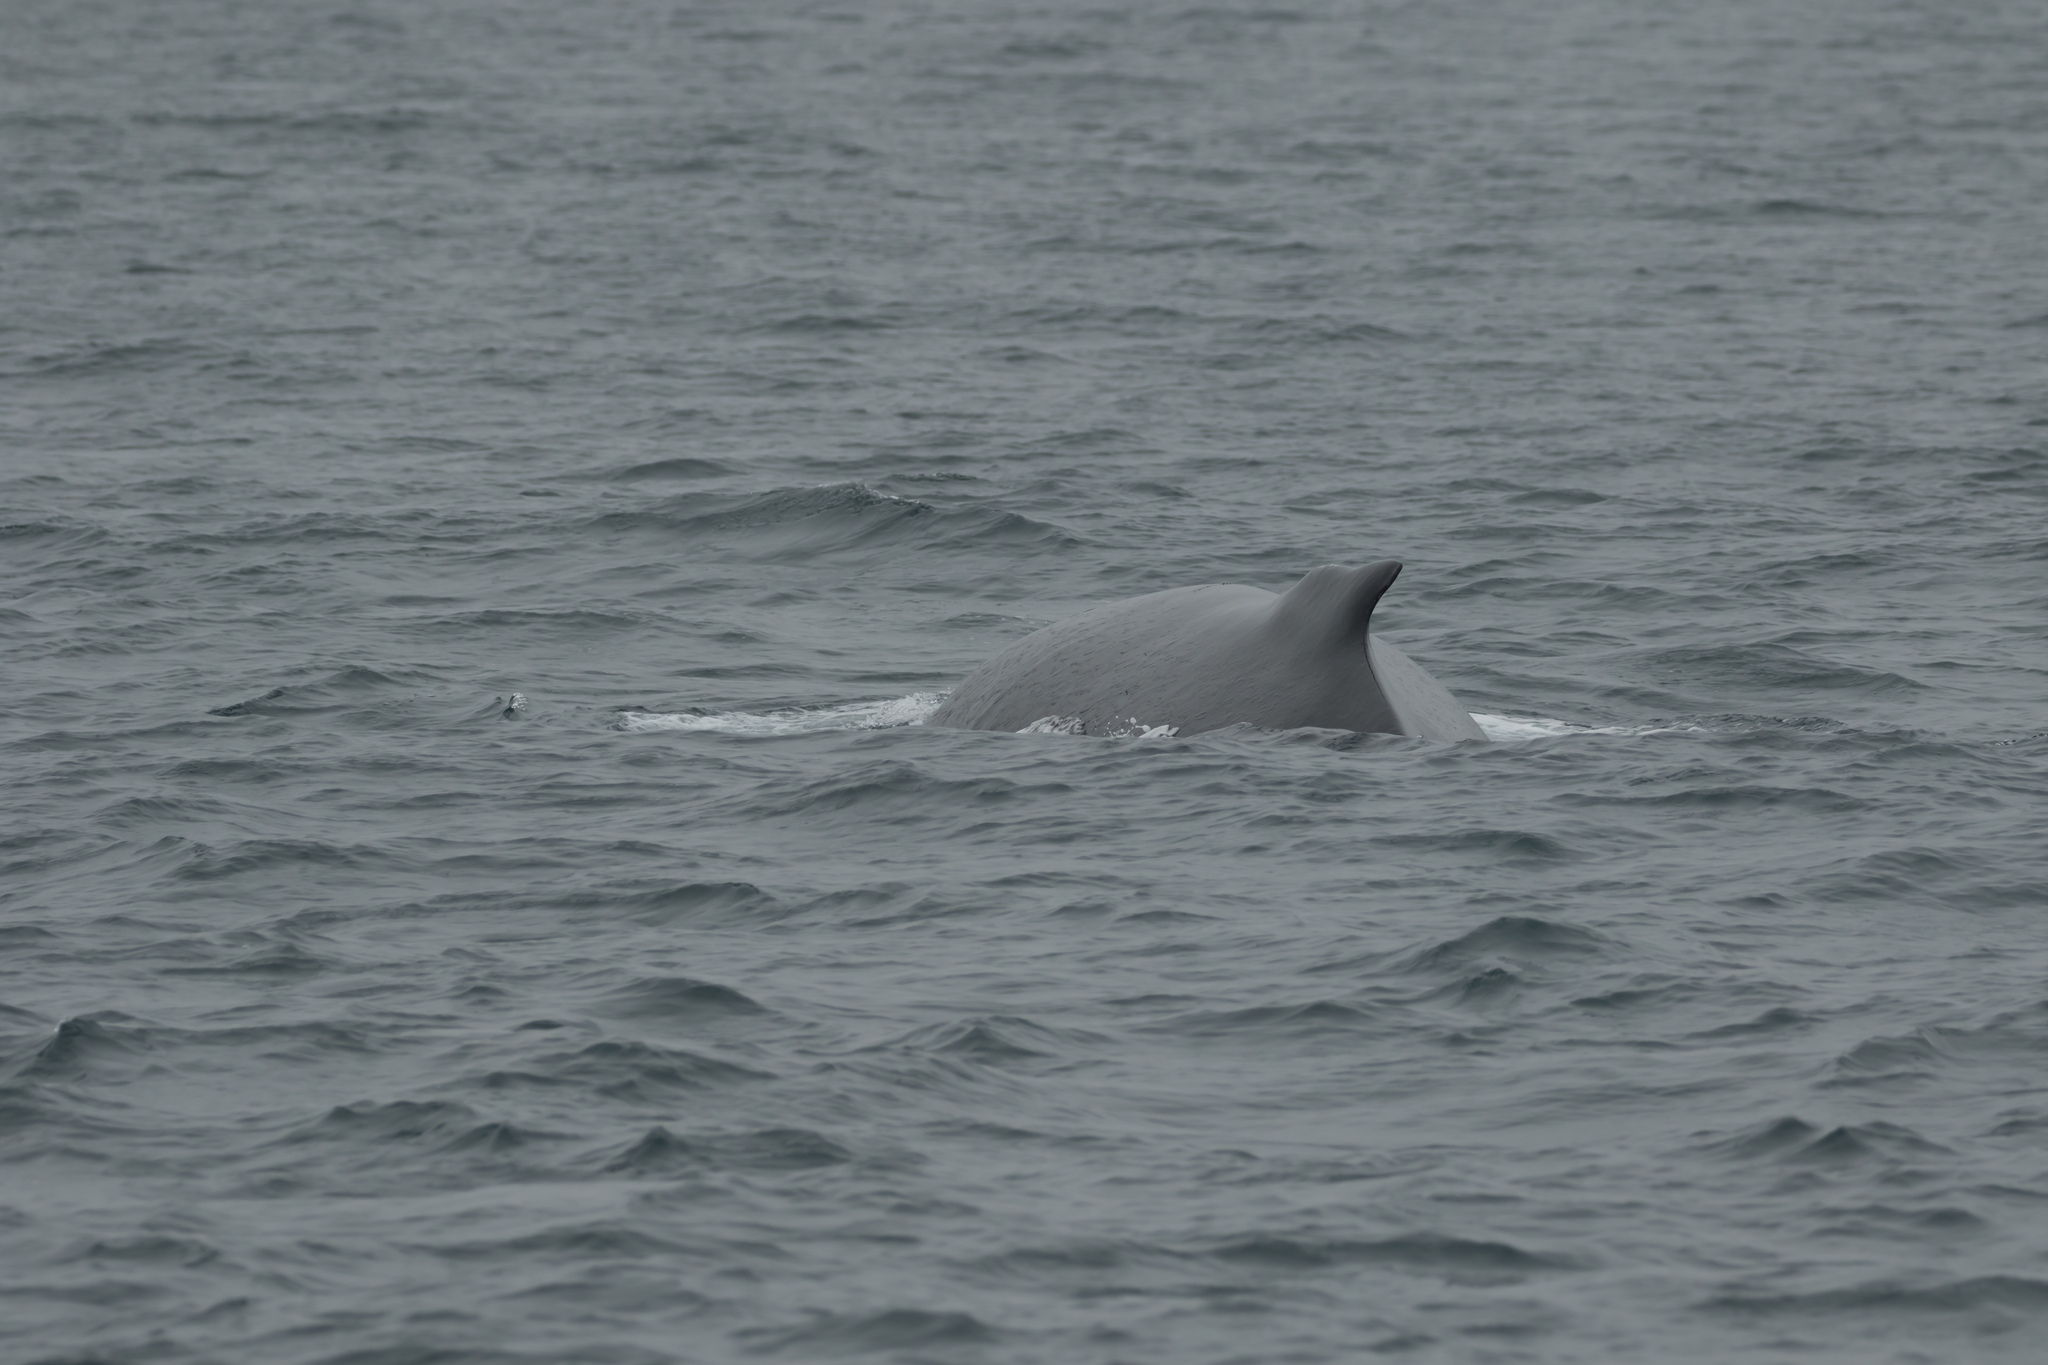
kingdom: Animalia
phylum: Chordata
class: Mammalia
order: Cetacea
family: Balaenopteridae
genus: Megaptera
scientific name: Megaptera novaeangliae
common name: Humpback whale
